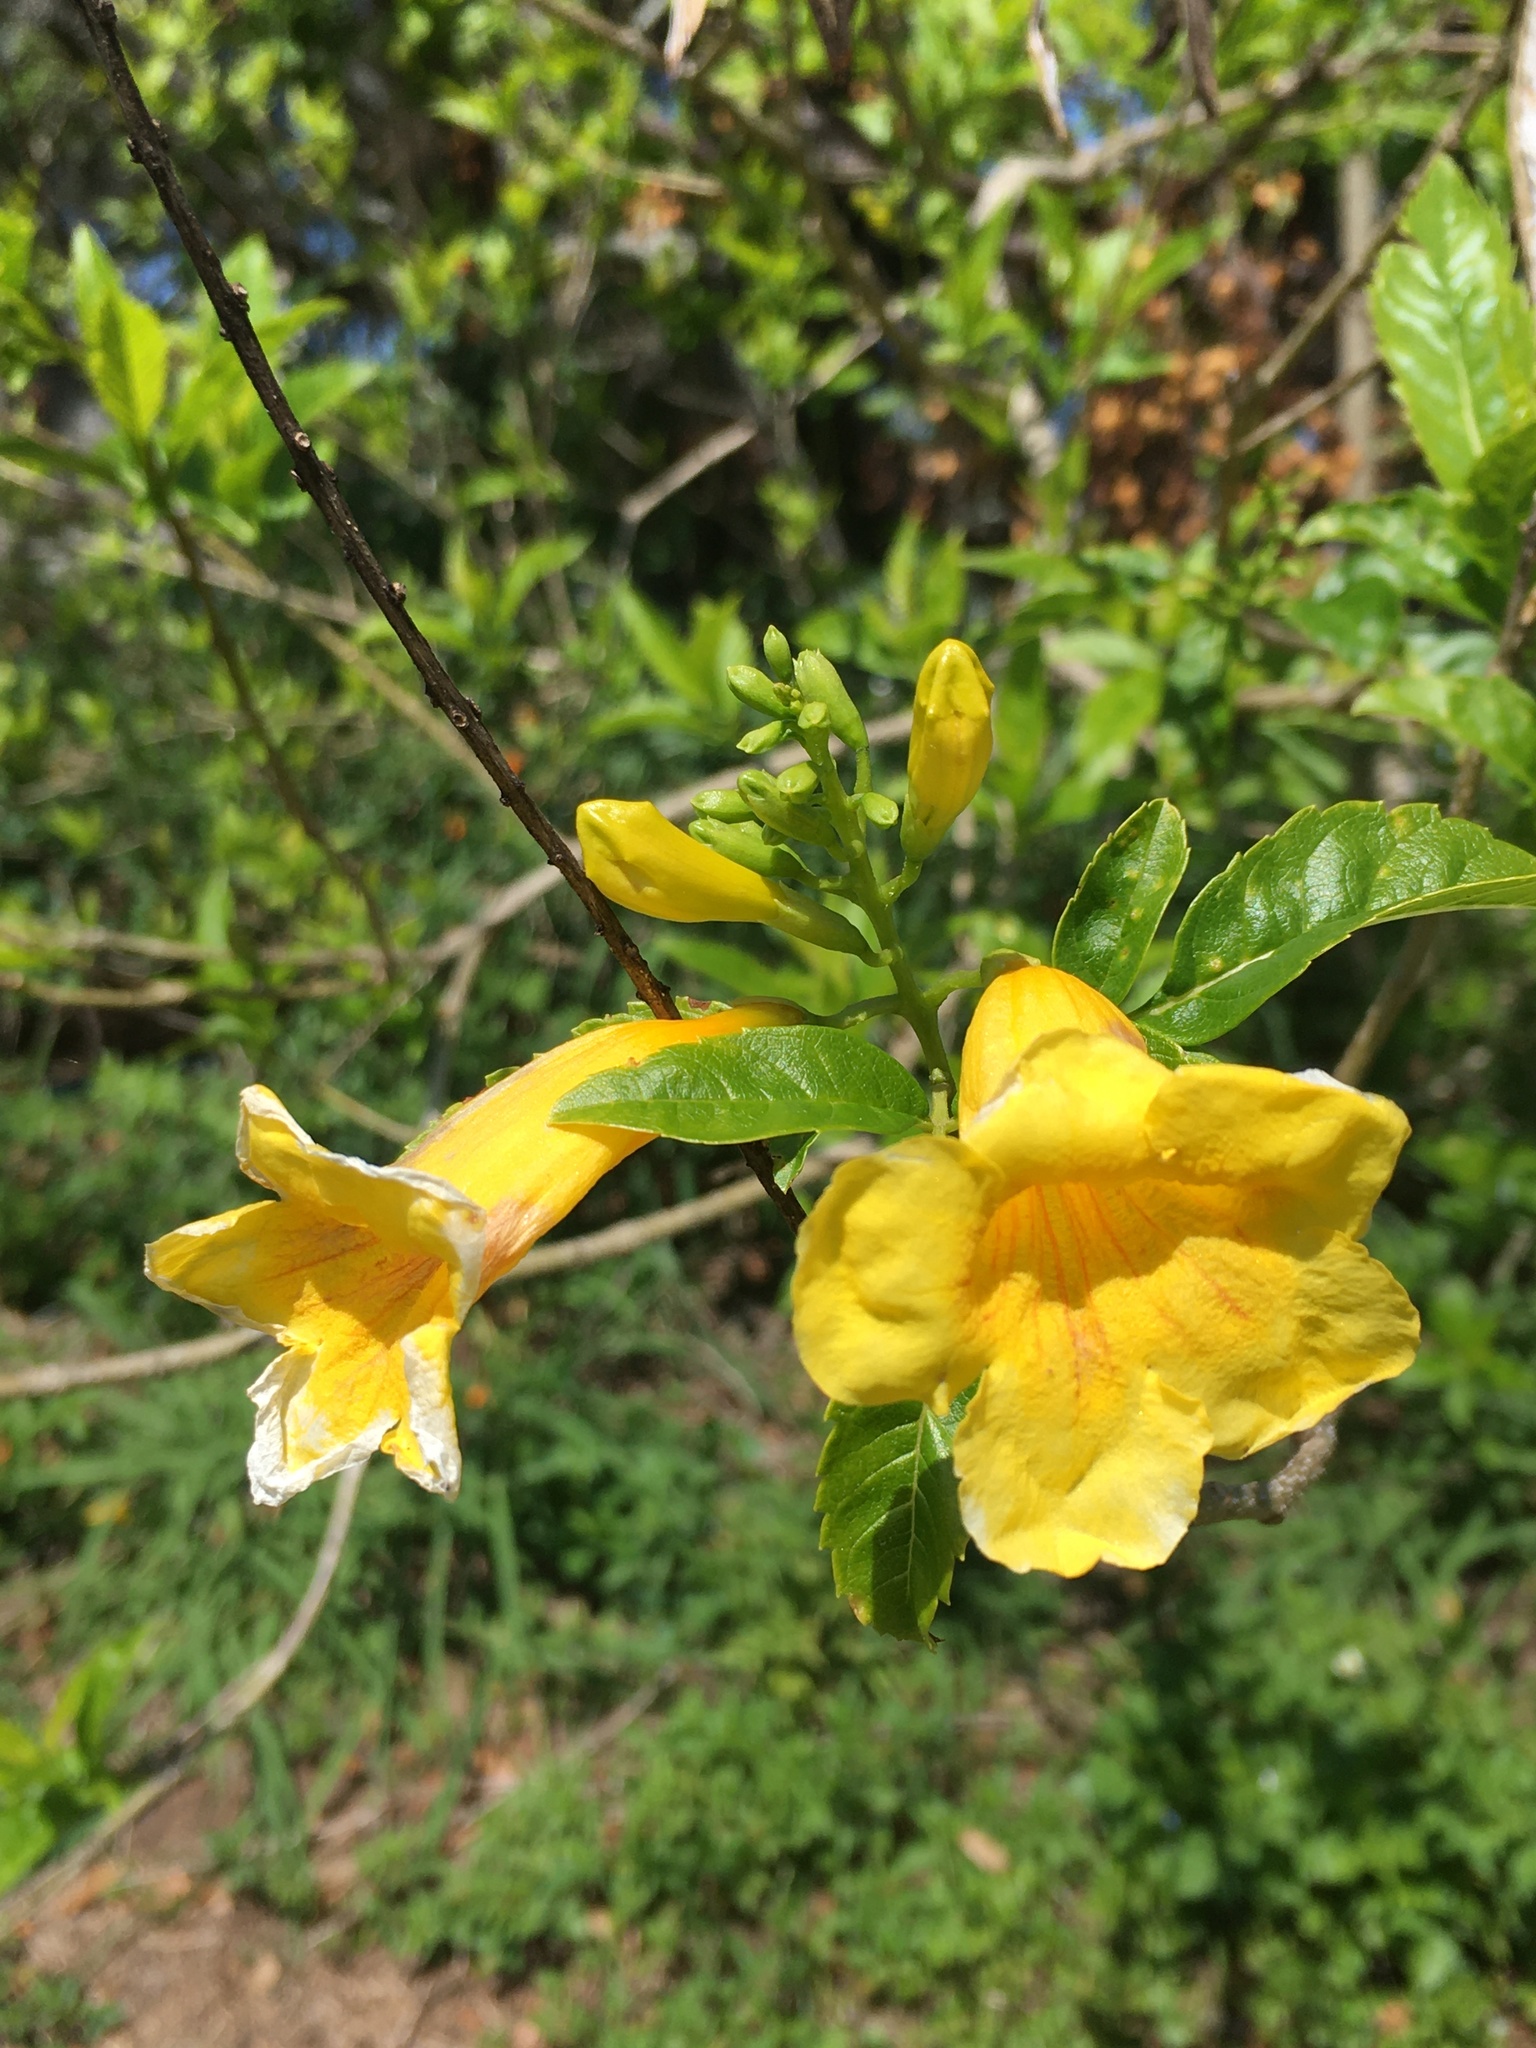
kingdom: Plantae
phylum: Tracheophyta
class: Magnoliopsida
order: Lamiales
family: Bignoniaceae
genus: Tecoma
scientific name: Tecoma stans
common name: Yellow trumpetbush
